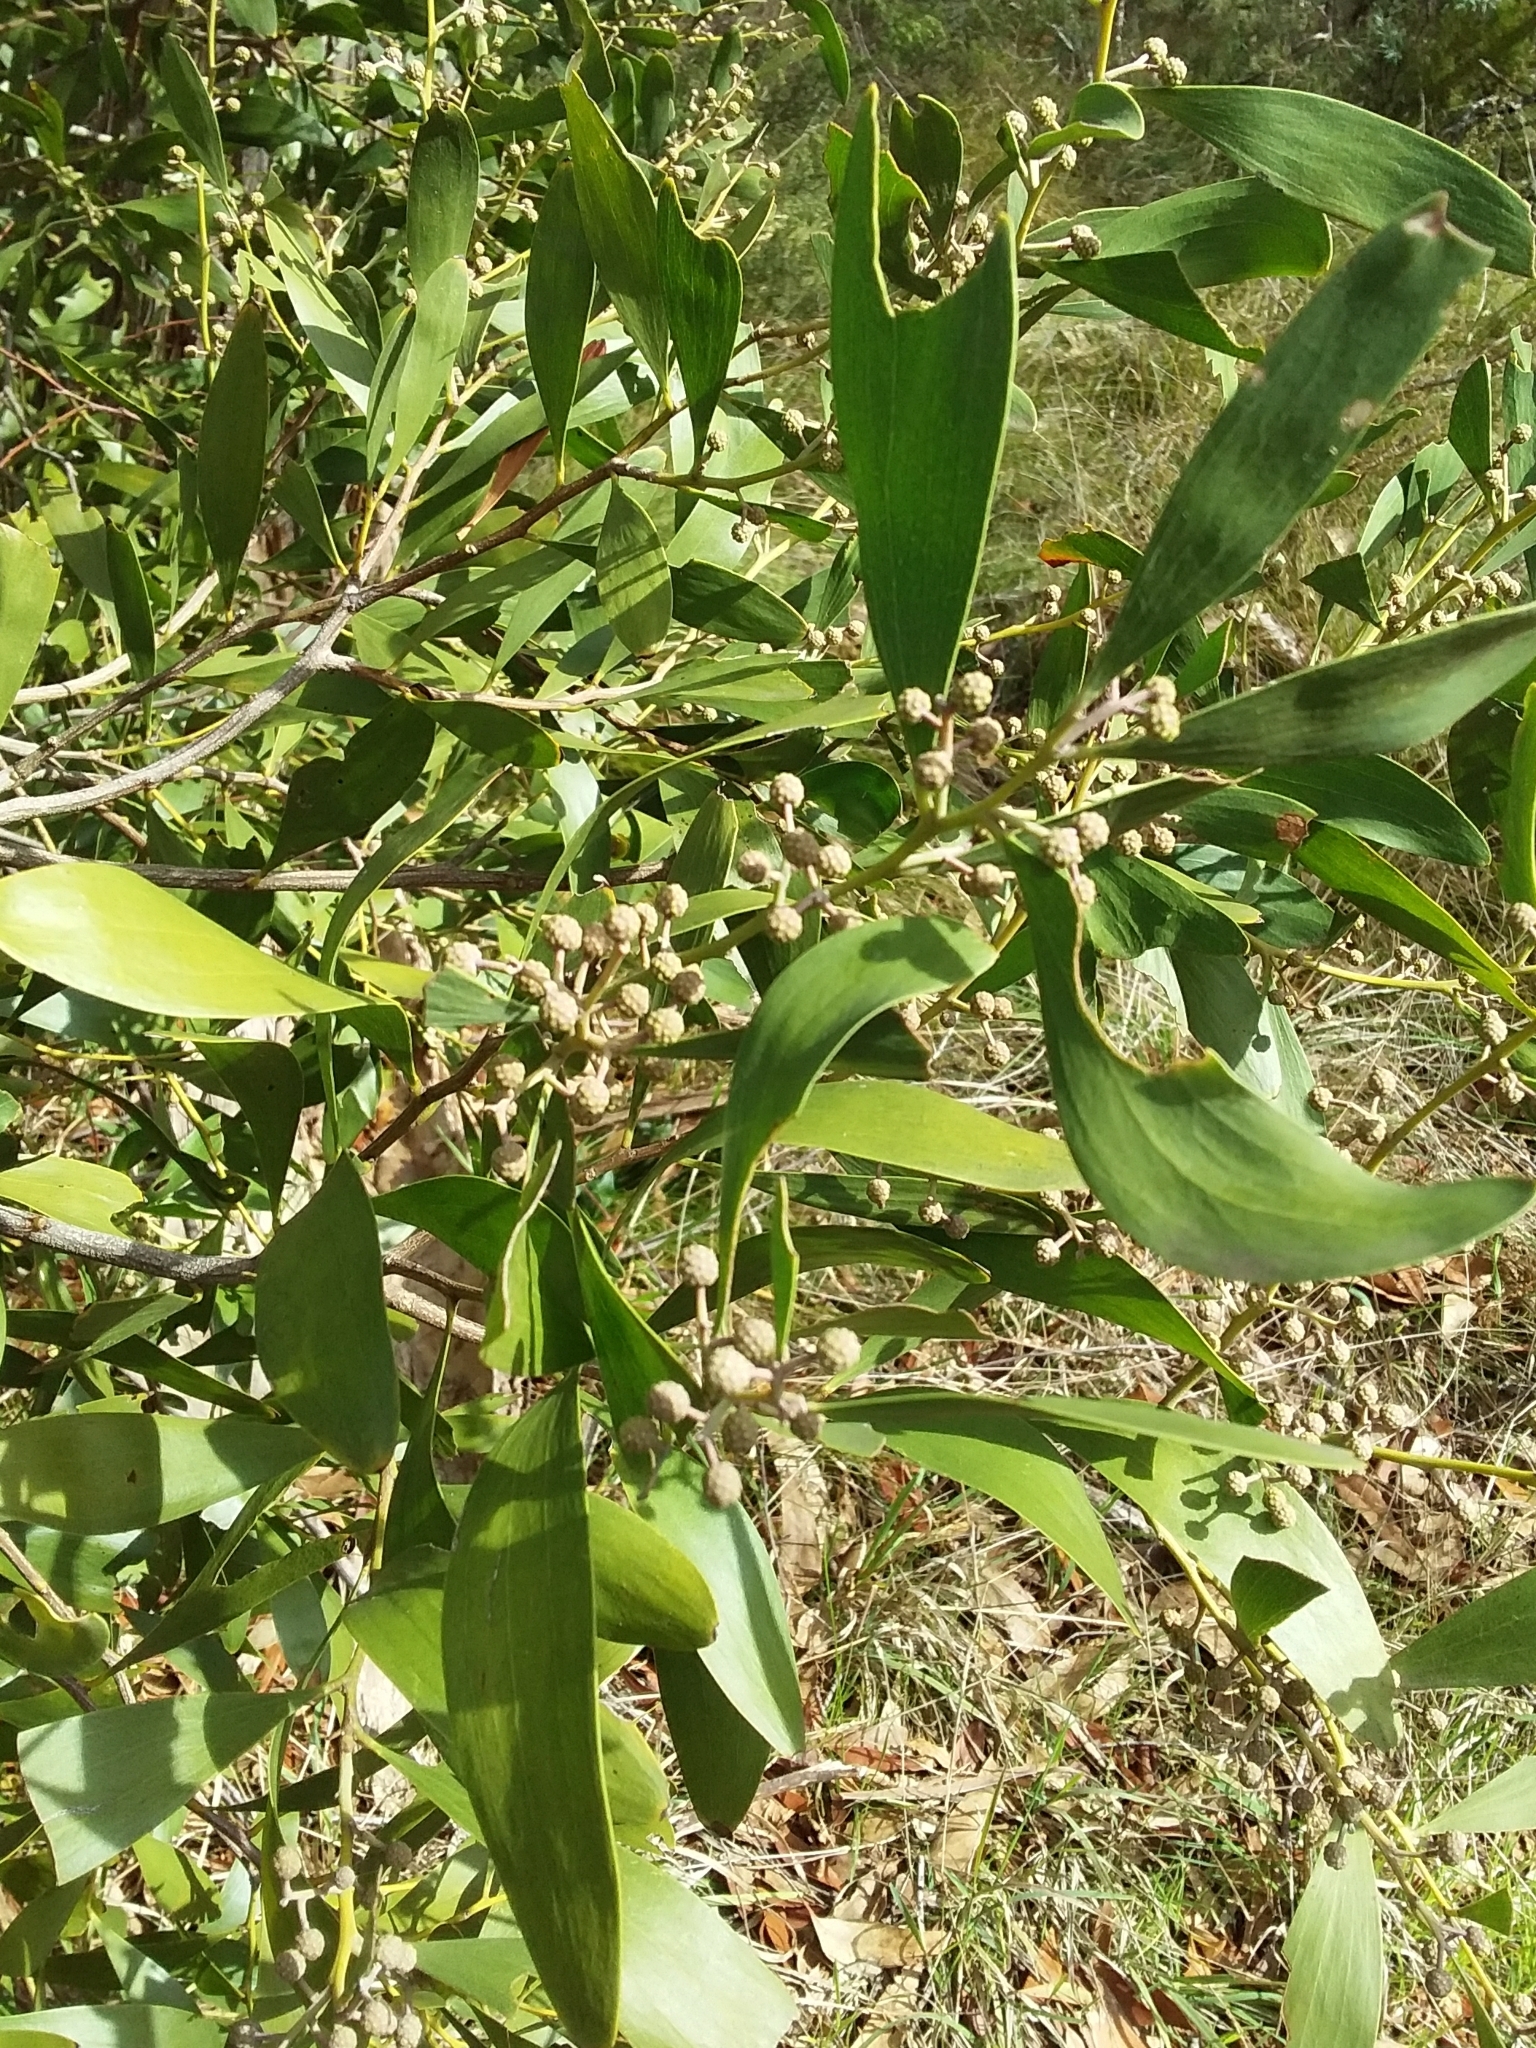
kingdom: Plantae
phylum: Tracheophyta
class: Magnoliopsida
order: Fabales
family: Fabaceae
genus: Acacia
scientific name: Acacia melanoxylon
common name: Blackwood
